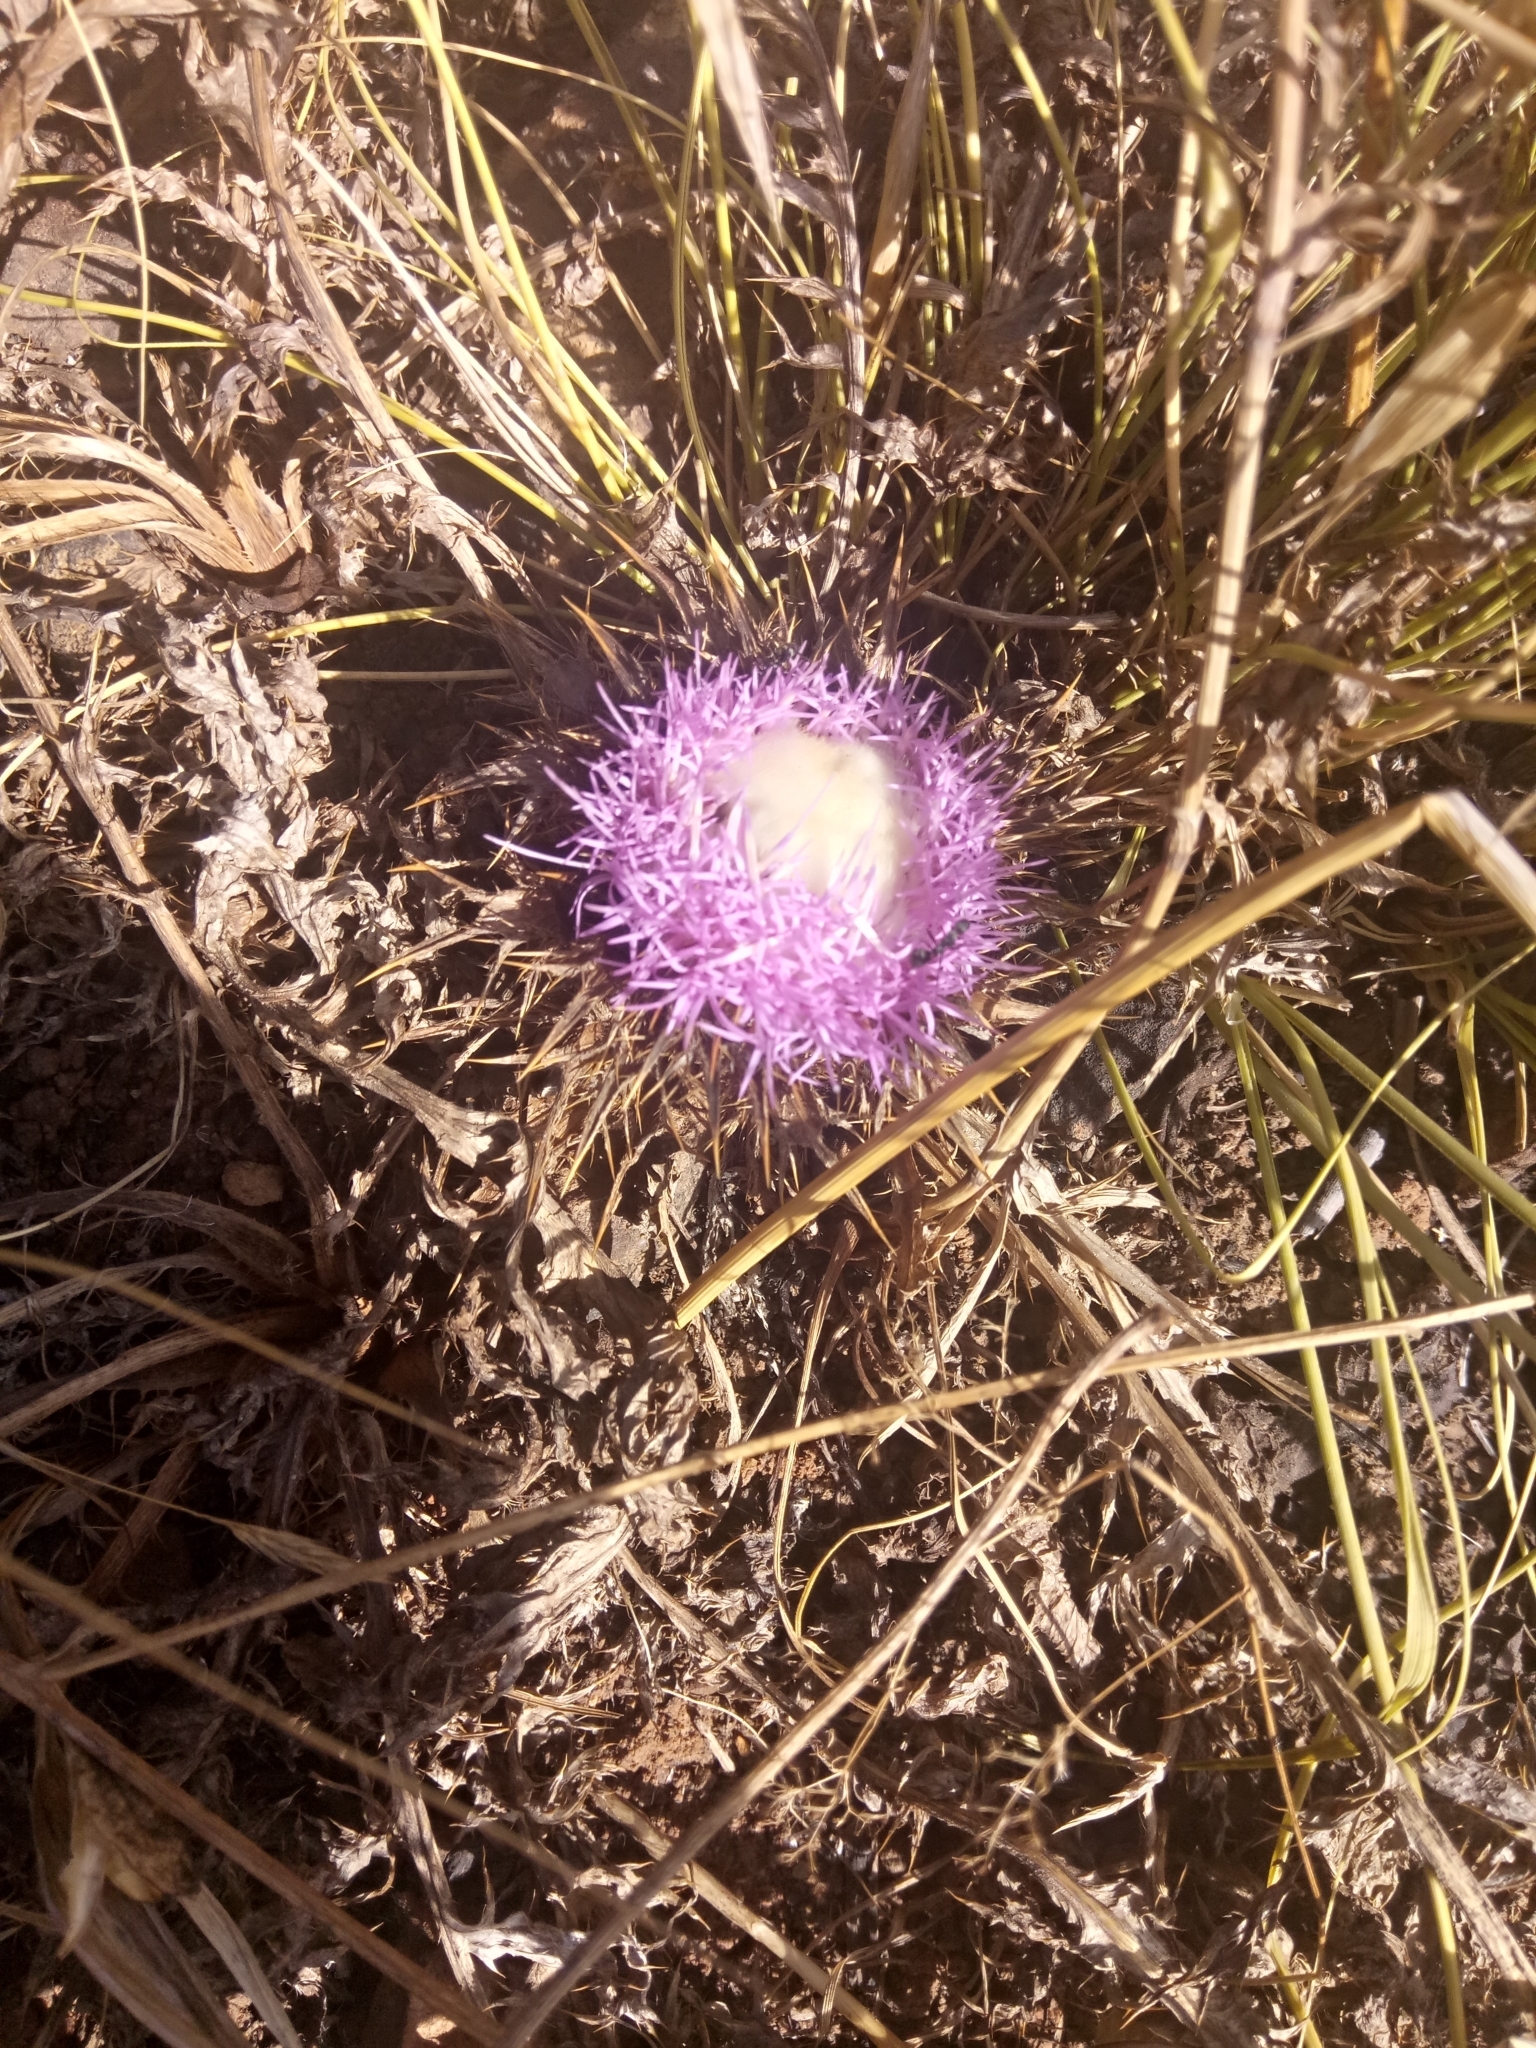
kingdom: Plantae
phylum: Tracheophyta
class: Magnoliopsida
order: Asterales
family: Asteraceae
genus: Chamaeleon
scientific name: Chamaeleon gummifer
